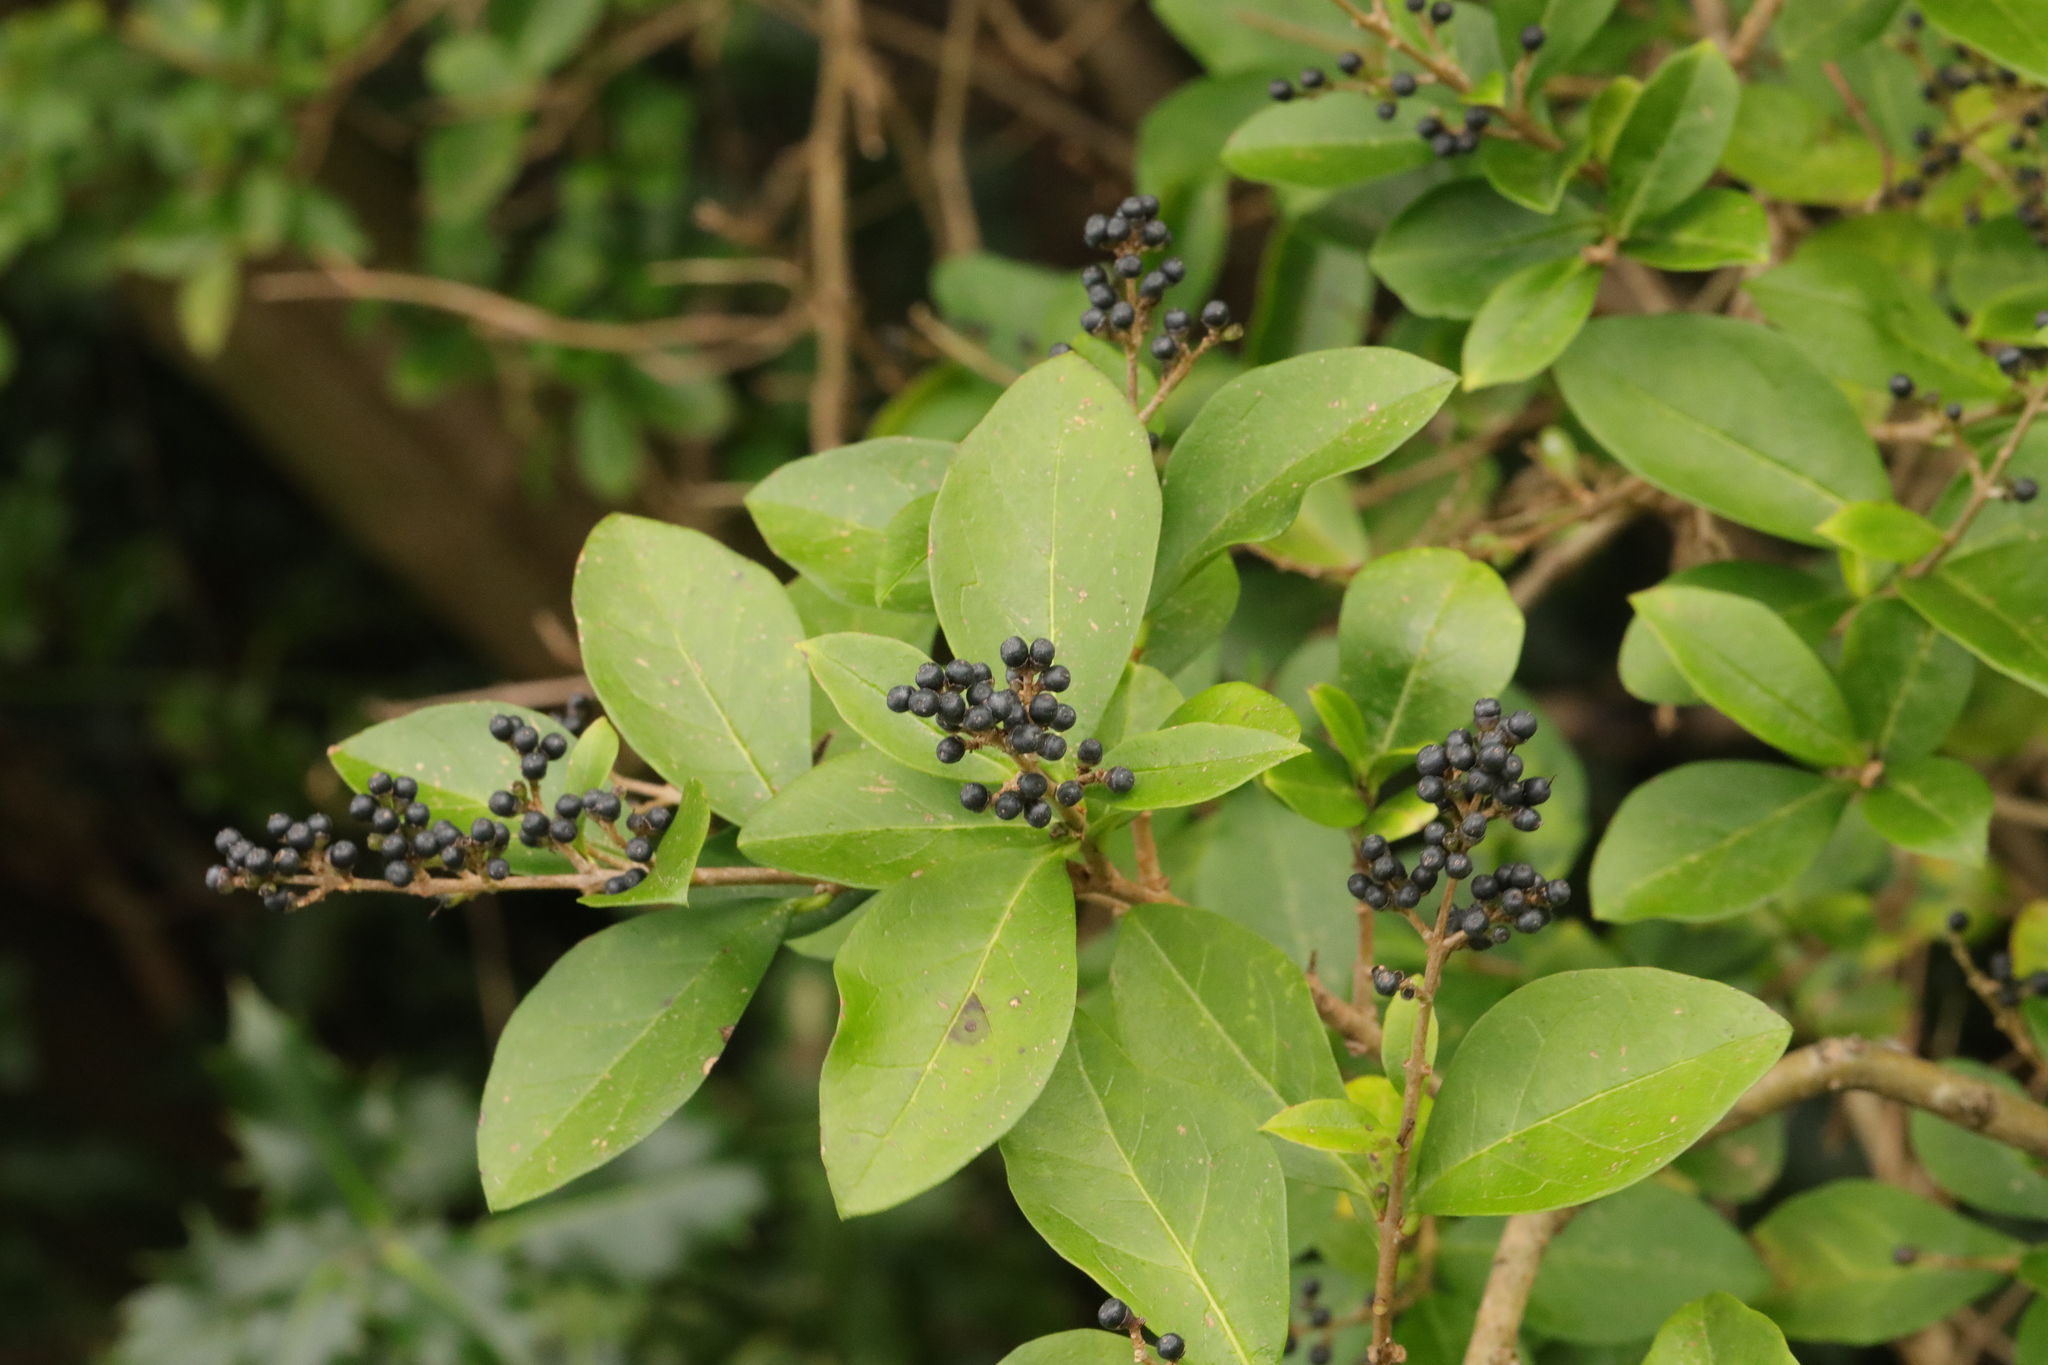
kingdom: Plantae
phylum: Tracheophyta
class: Magnoliopsida
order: Lamiales
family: Oleaceae
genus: Ligustrum
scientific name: Ligustrum ovalifolium
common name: California privet
